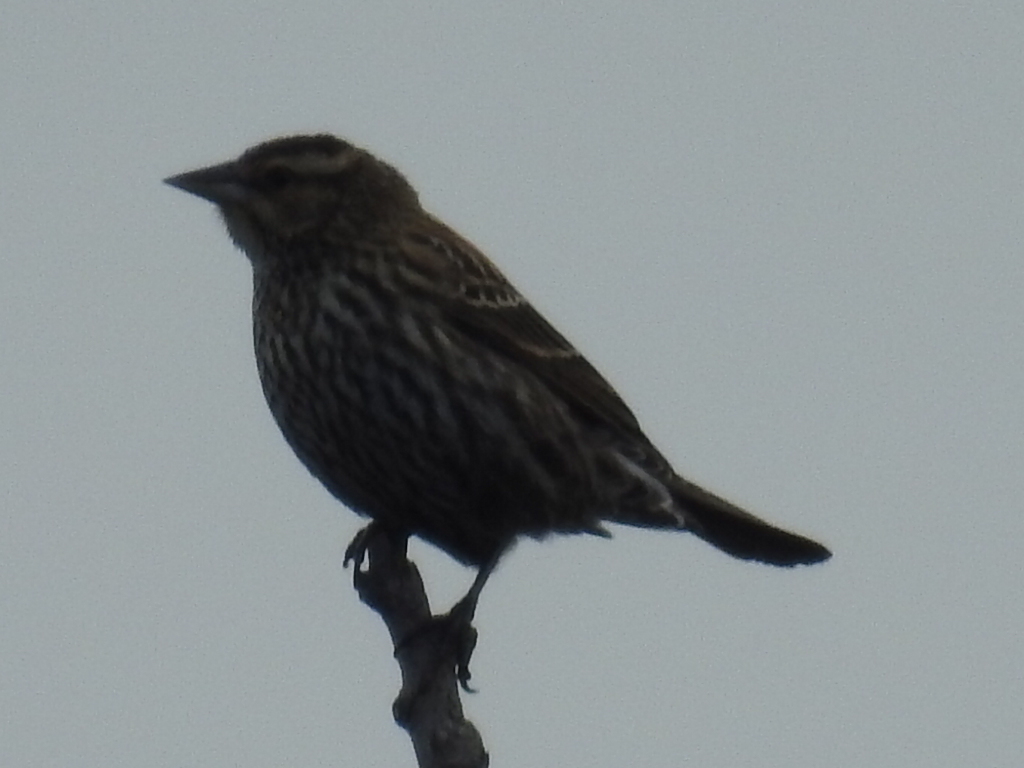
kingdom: Animalia
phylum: Chordata
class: Aves
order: Passeriformes
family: Icteridae
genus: Agelaius
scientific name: Agelaius phoeniceus
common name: Red-winged blackbird
